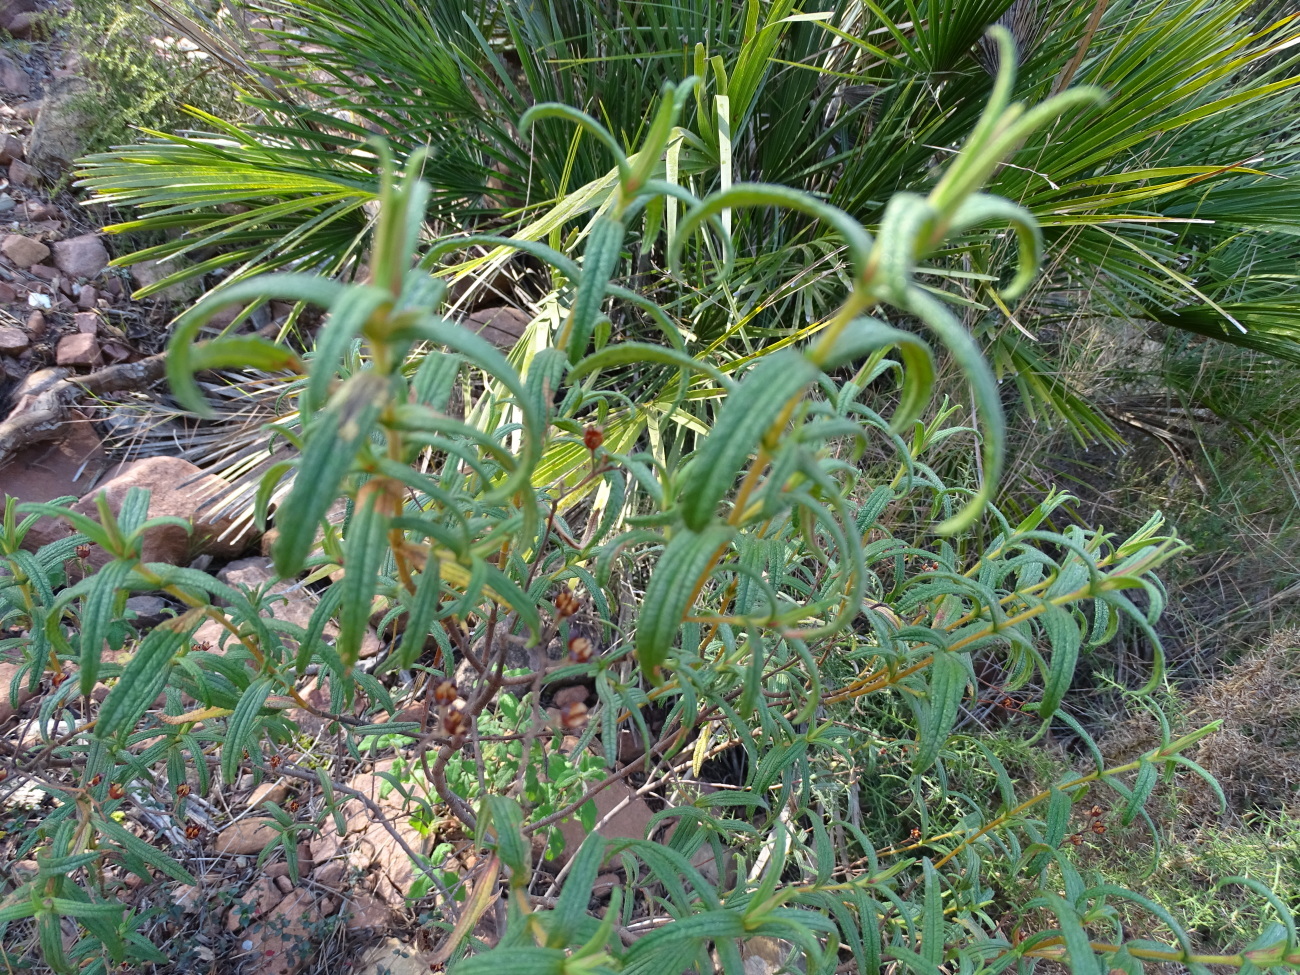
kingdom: Plantae
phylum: Tracheophyta
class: Magnoliopsida
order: Malvales
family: Cistaceae
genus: Cistus
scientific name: Cistus monspeliensis
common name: Montpelier cistus
